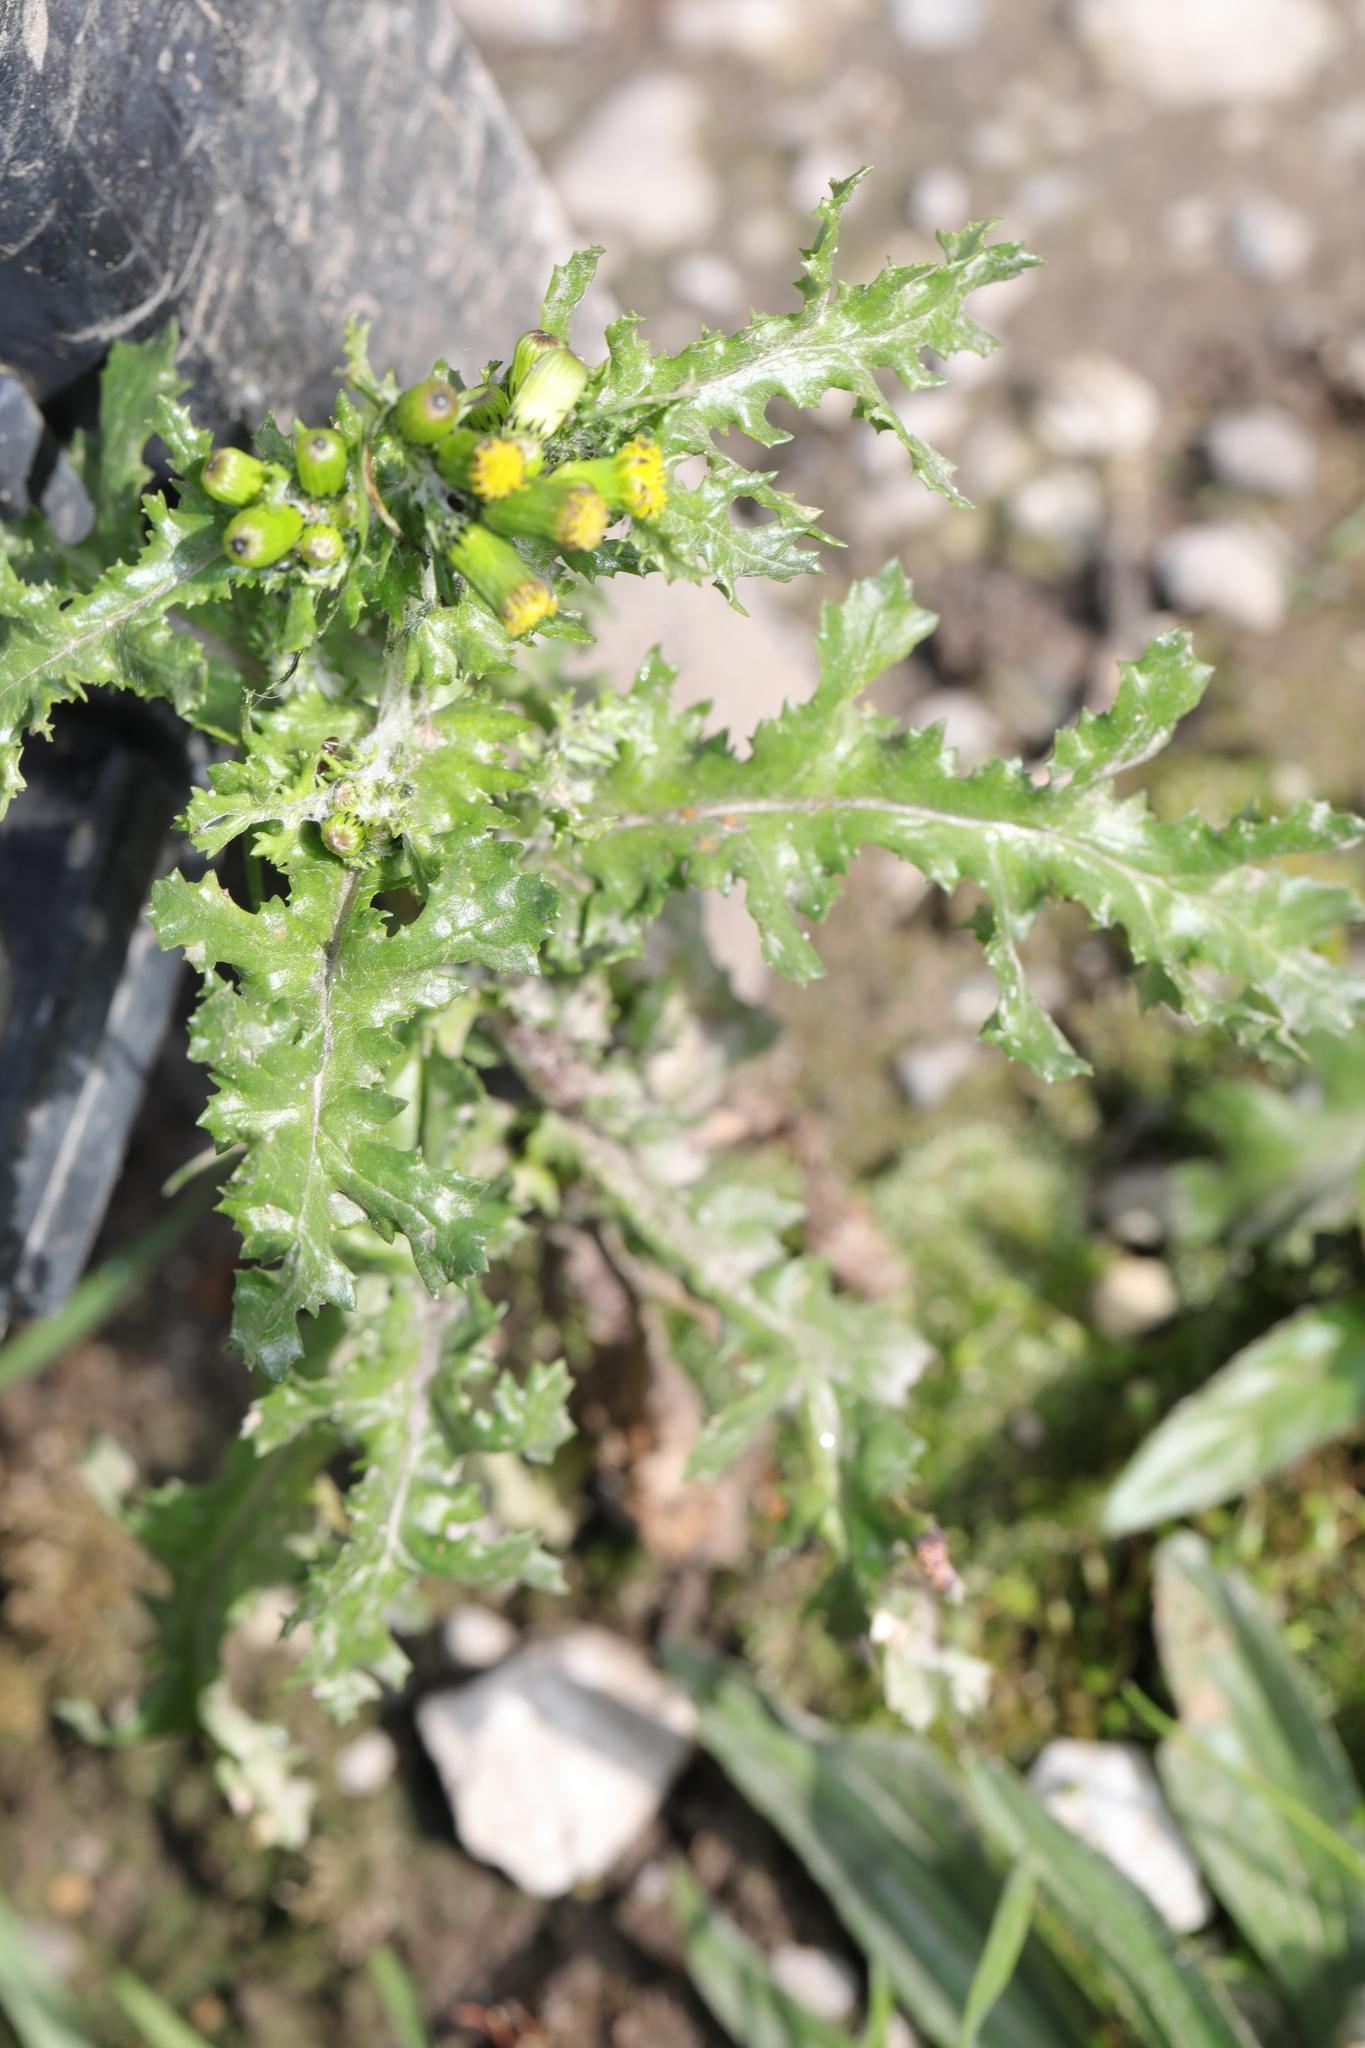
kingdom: Plantae
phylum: Tracheophyta
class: Magnoliopsida
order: Asterales
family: Asteraceae
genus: Senecio
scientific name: Senecio vulgaris
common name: Old-man-in-the-spring
